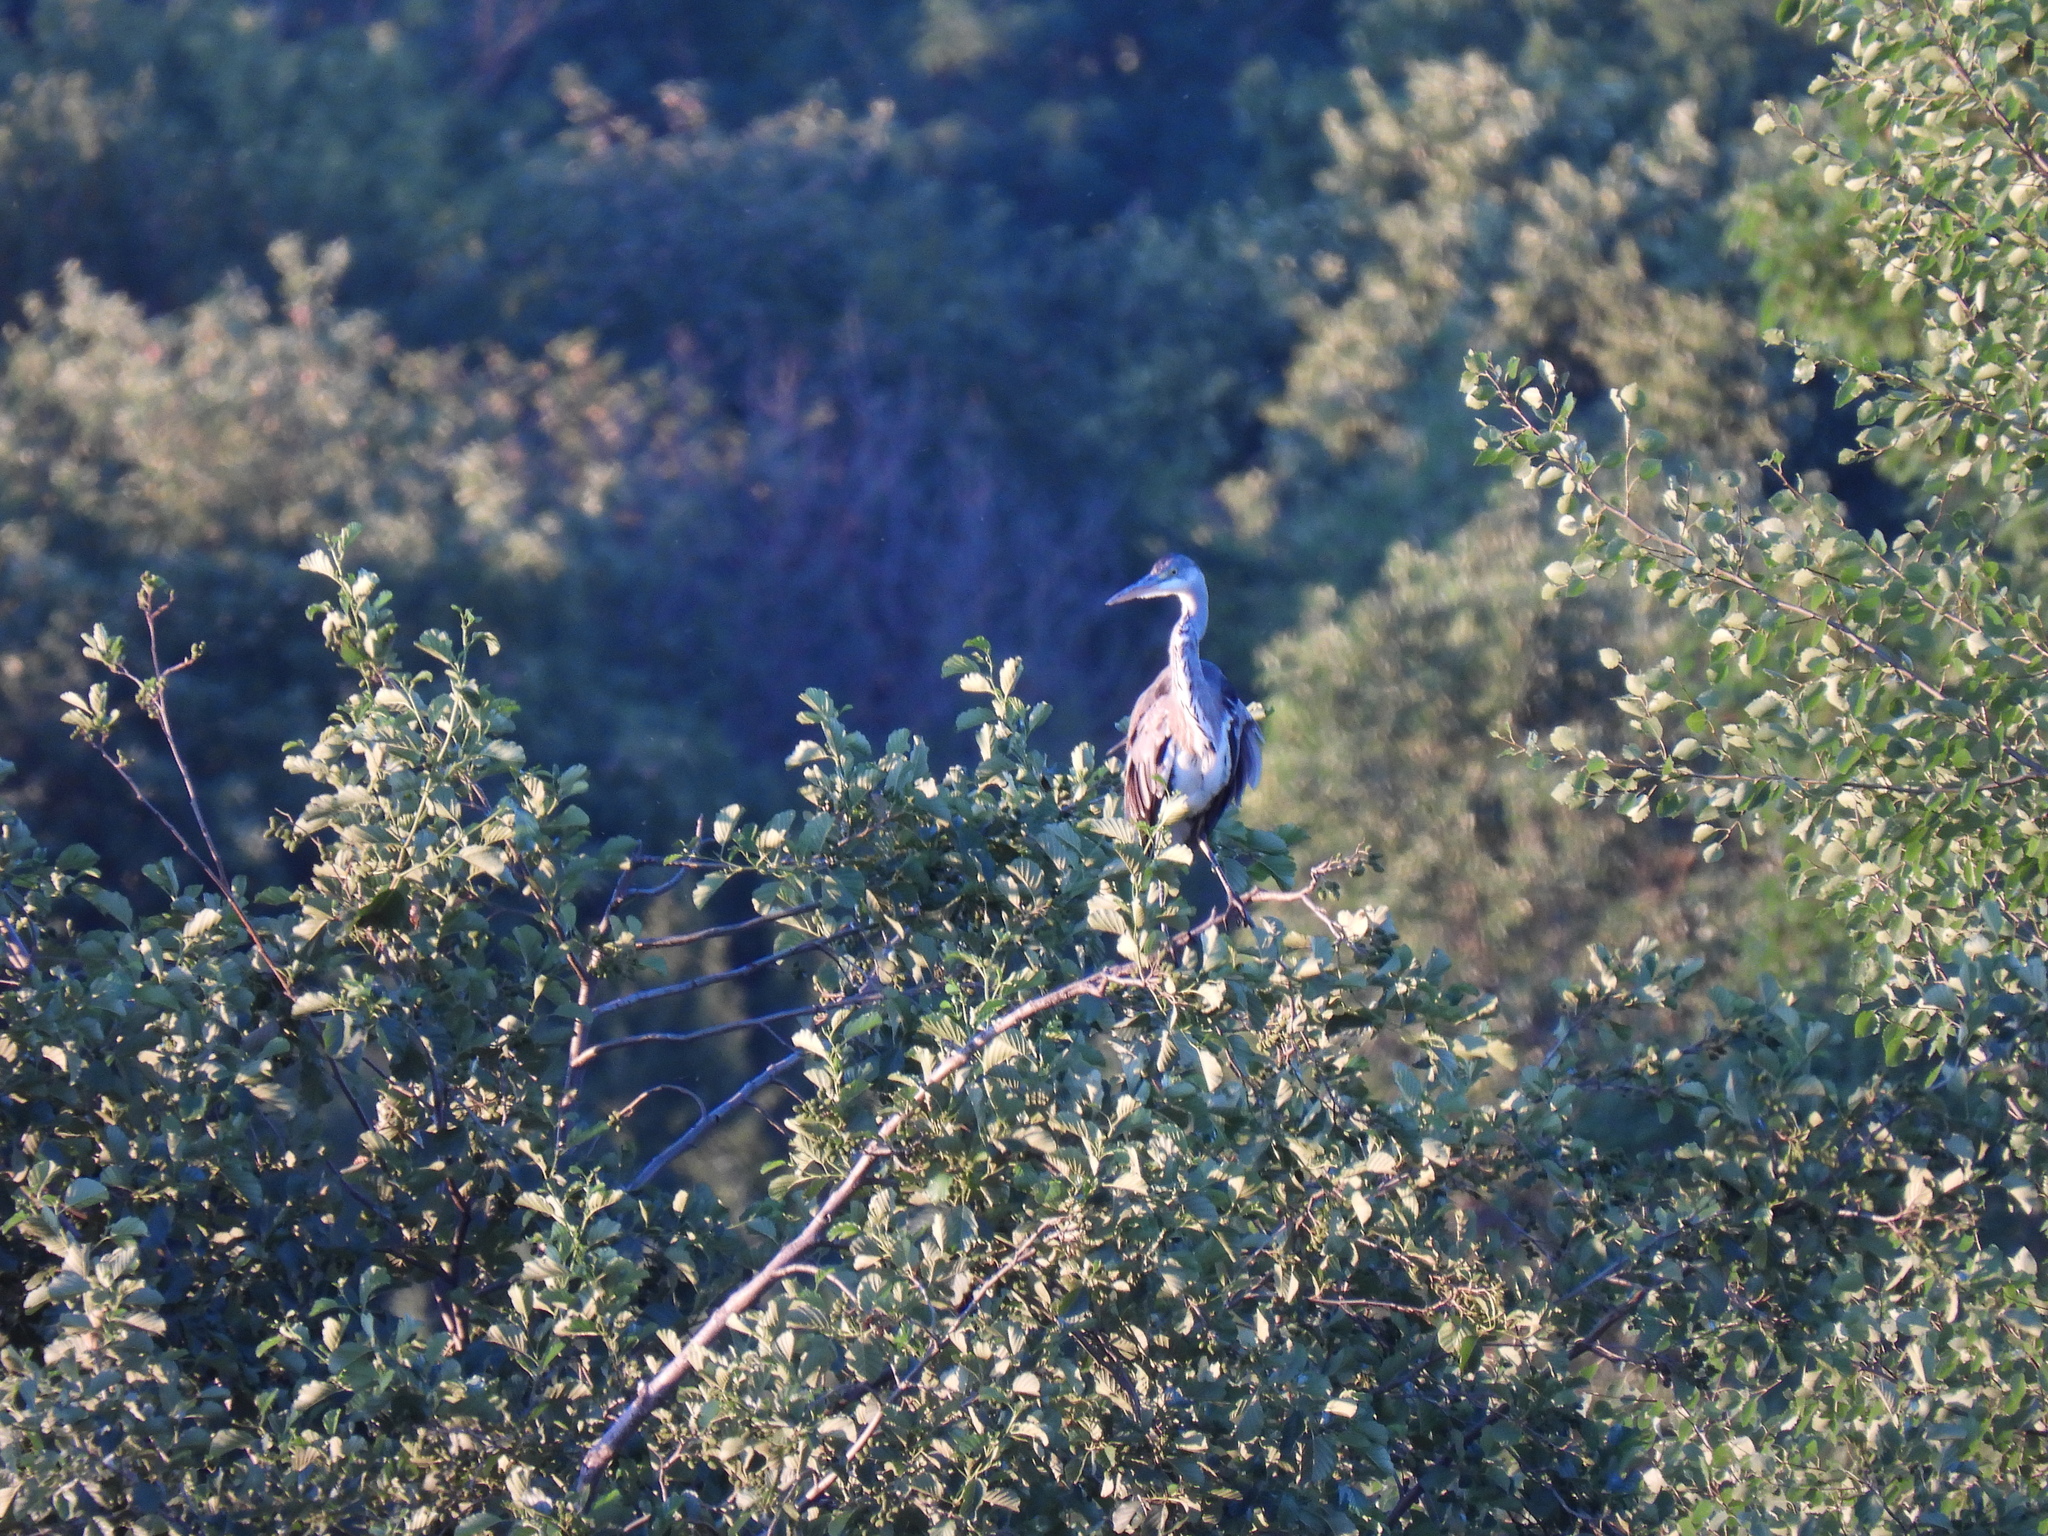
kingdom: Animalia
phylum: Chordata
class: Aves
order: Pelecaniformes
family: Ardeidae
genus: Ardea
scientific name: Ardea cinerea
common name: Grey heron
